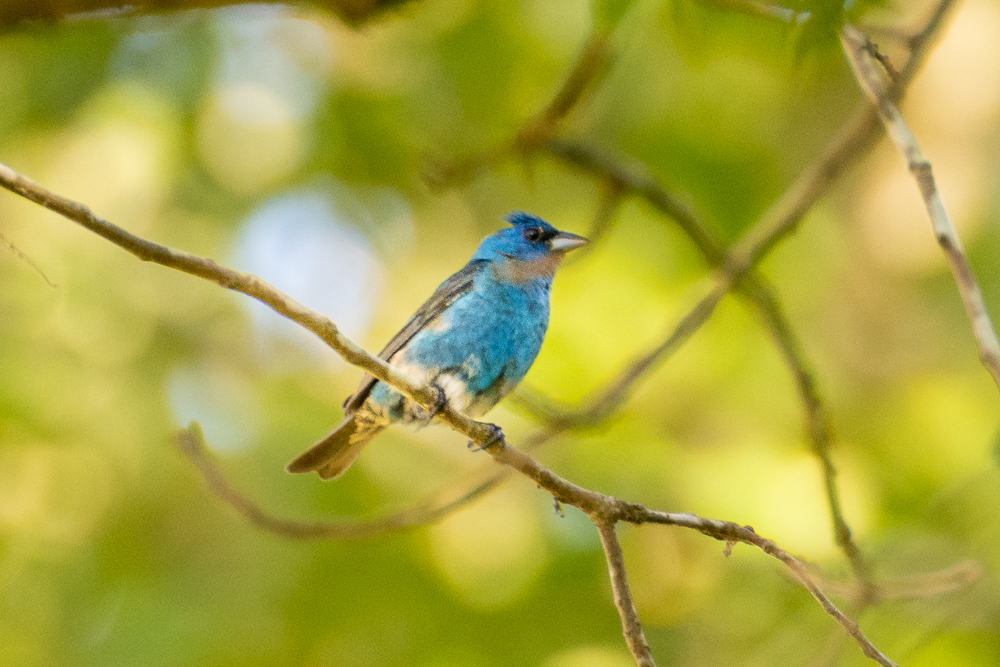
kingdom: Animalia
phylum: Chordata
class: Aves
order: Passeriformes
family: Cardinalidae
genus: Passerina
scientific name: Passerina cyanea
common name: Indigo bunting
